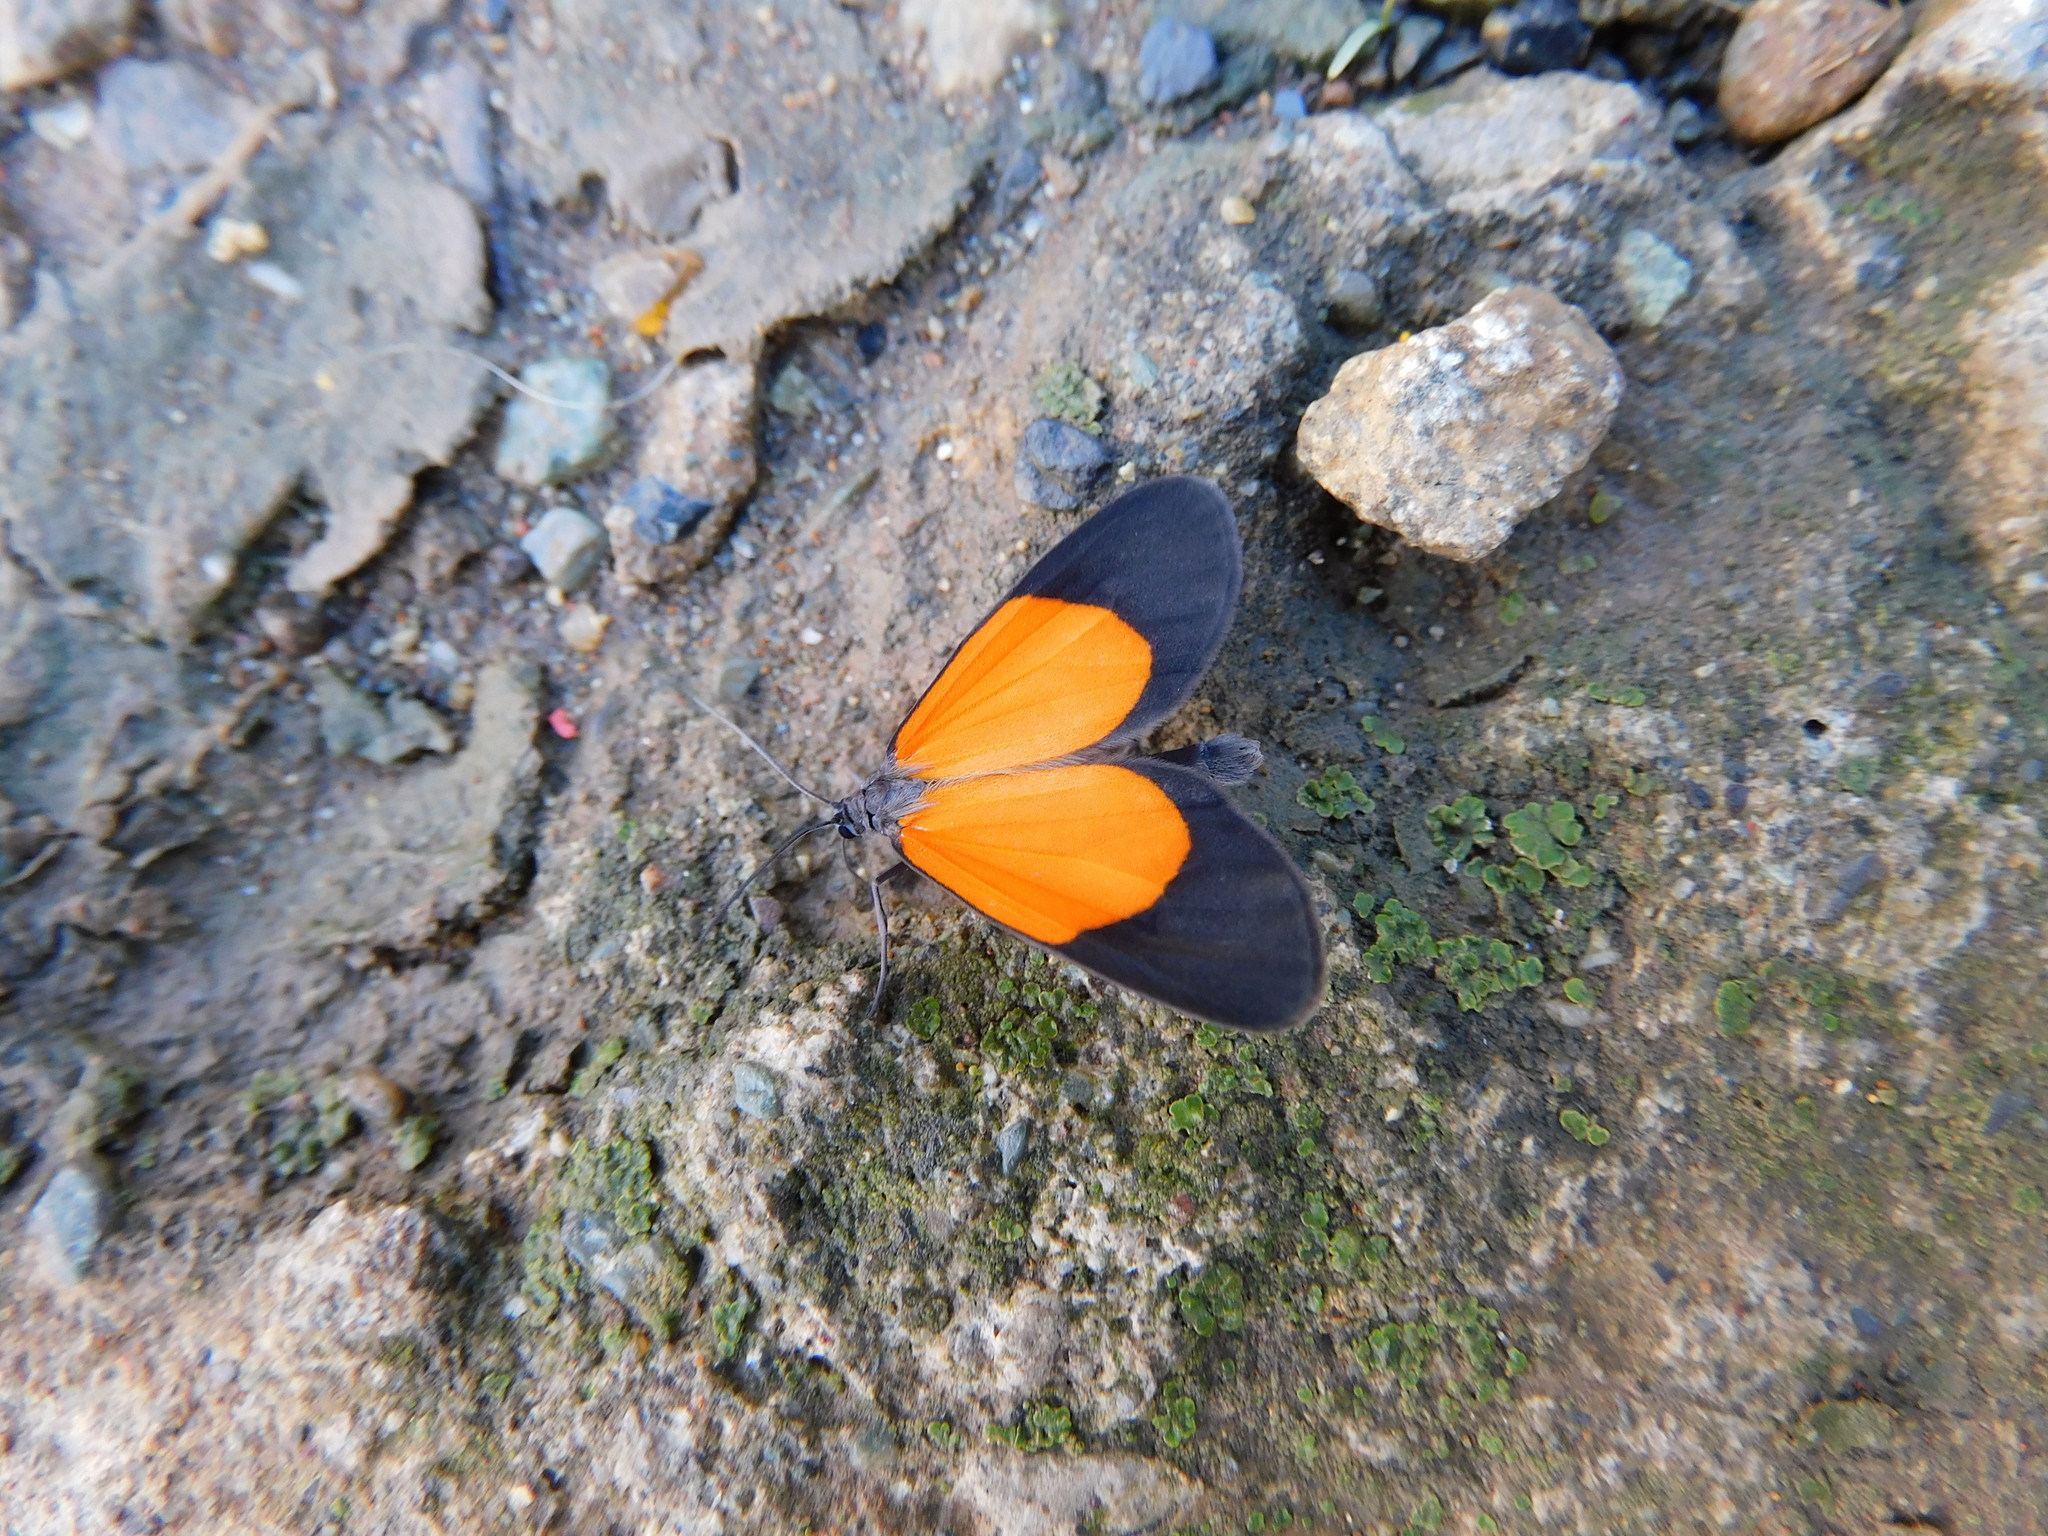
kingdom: Animalia
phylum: Arthropoda
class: Insecta
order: Lepidoptera
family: Geometridae
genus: Eudule
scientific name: Eudule fidentia
